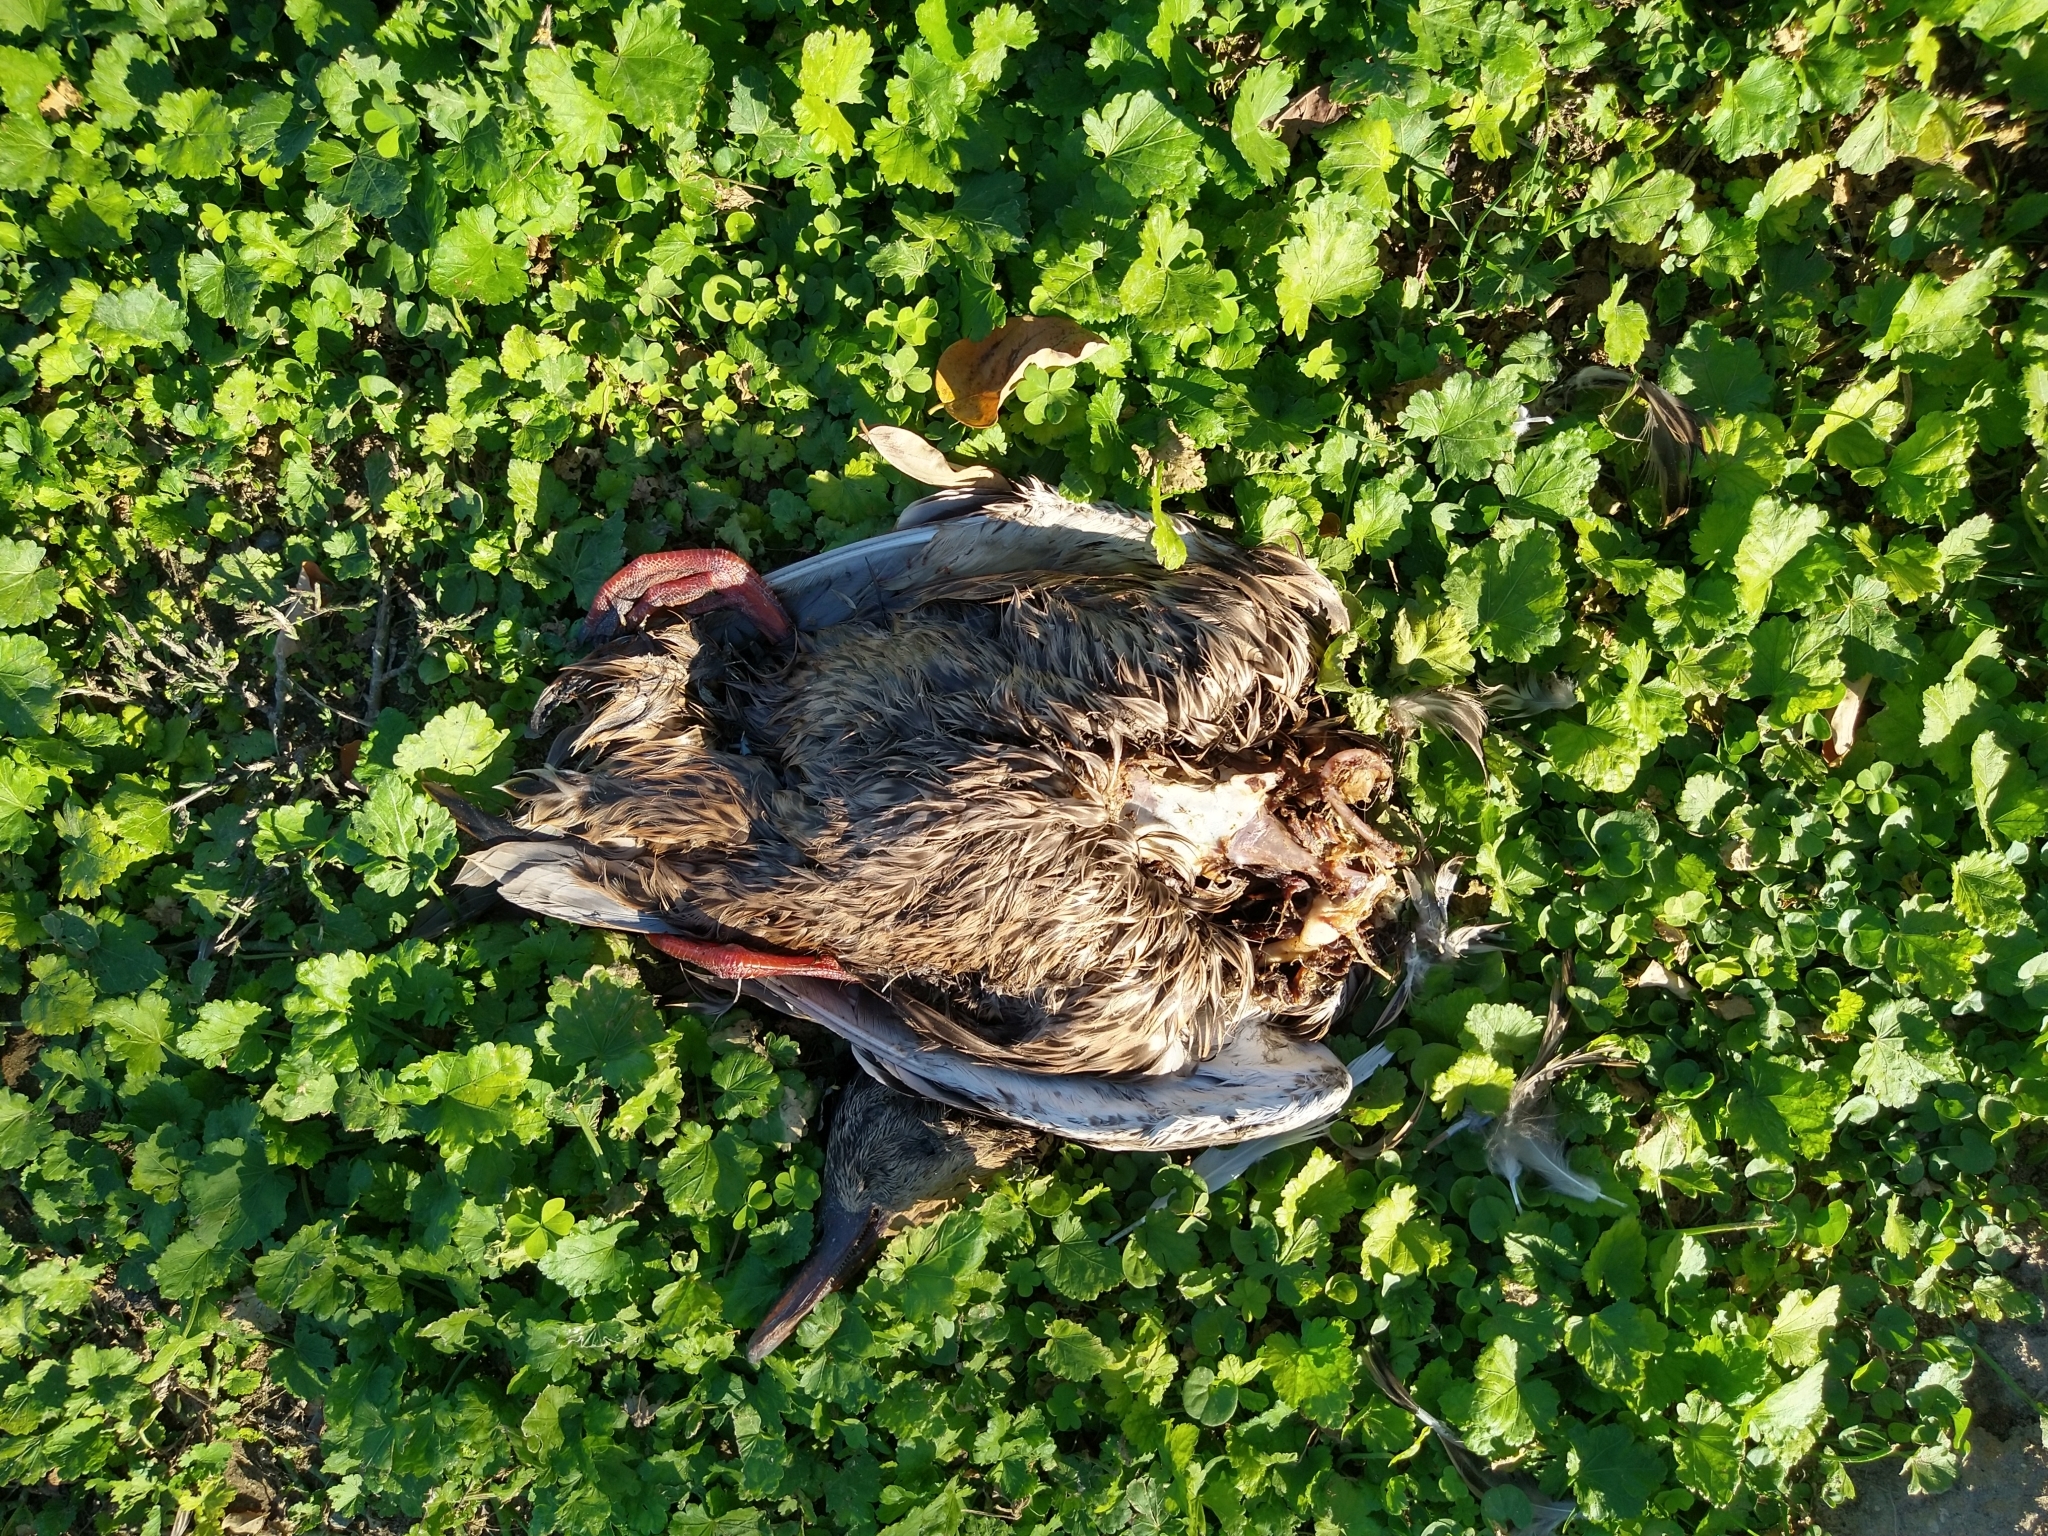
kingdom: Animalia
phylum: Chordata
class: Aves
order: Anseriformes
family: Anatidae
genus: Anas
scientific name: Anas platyrhynchos
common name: Mallard
